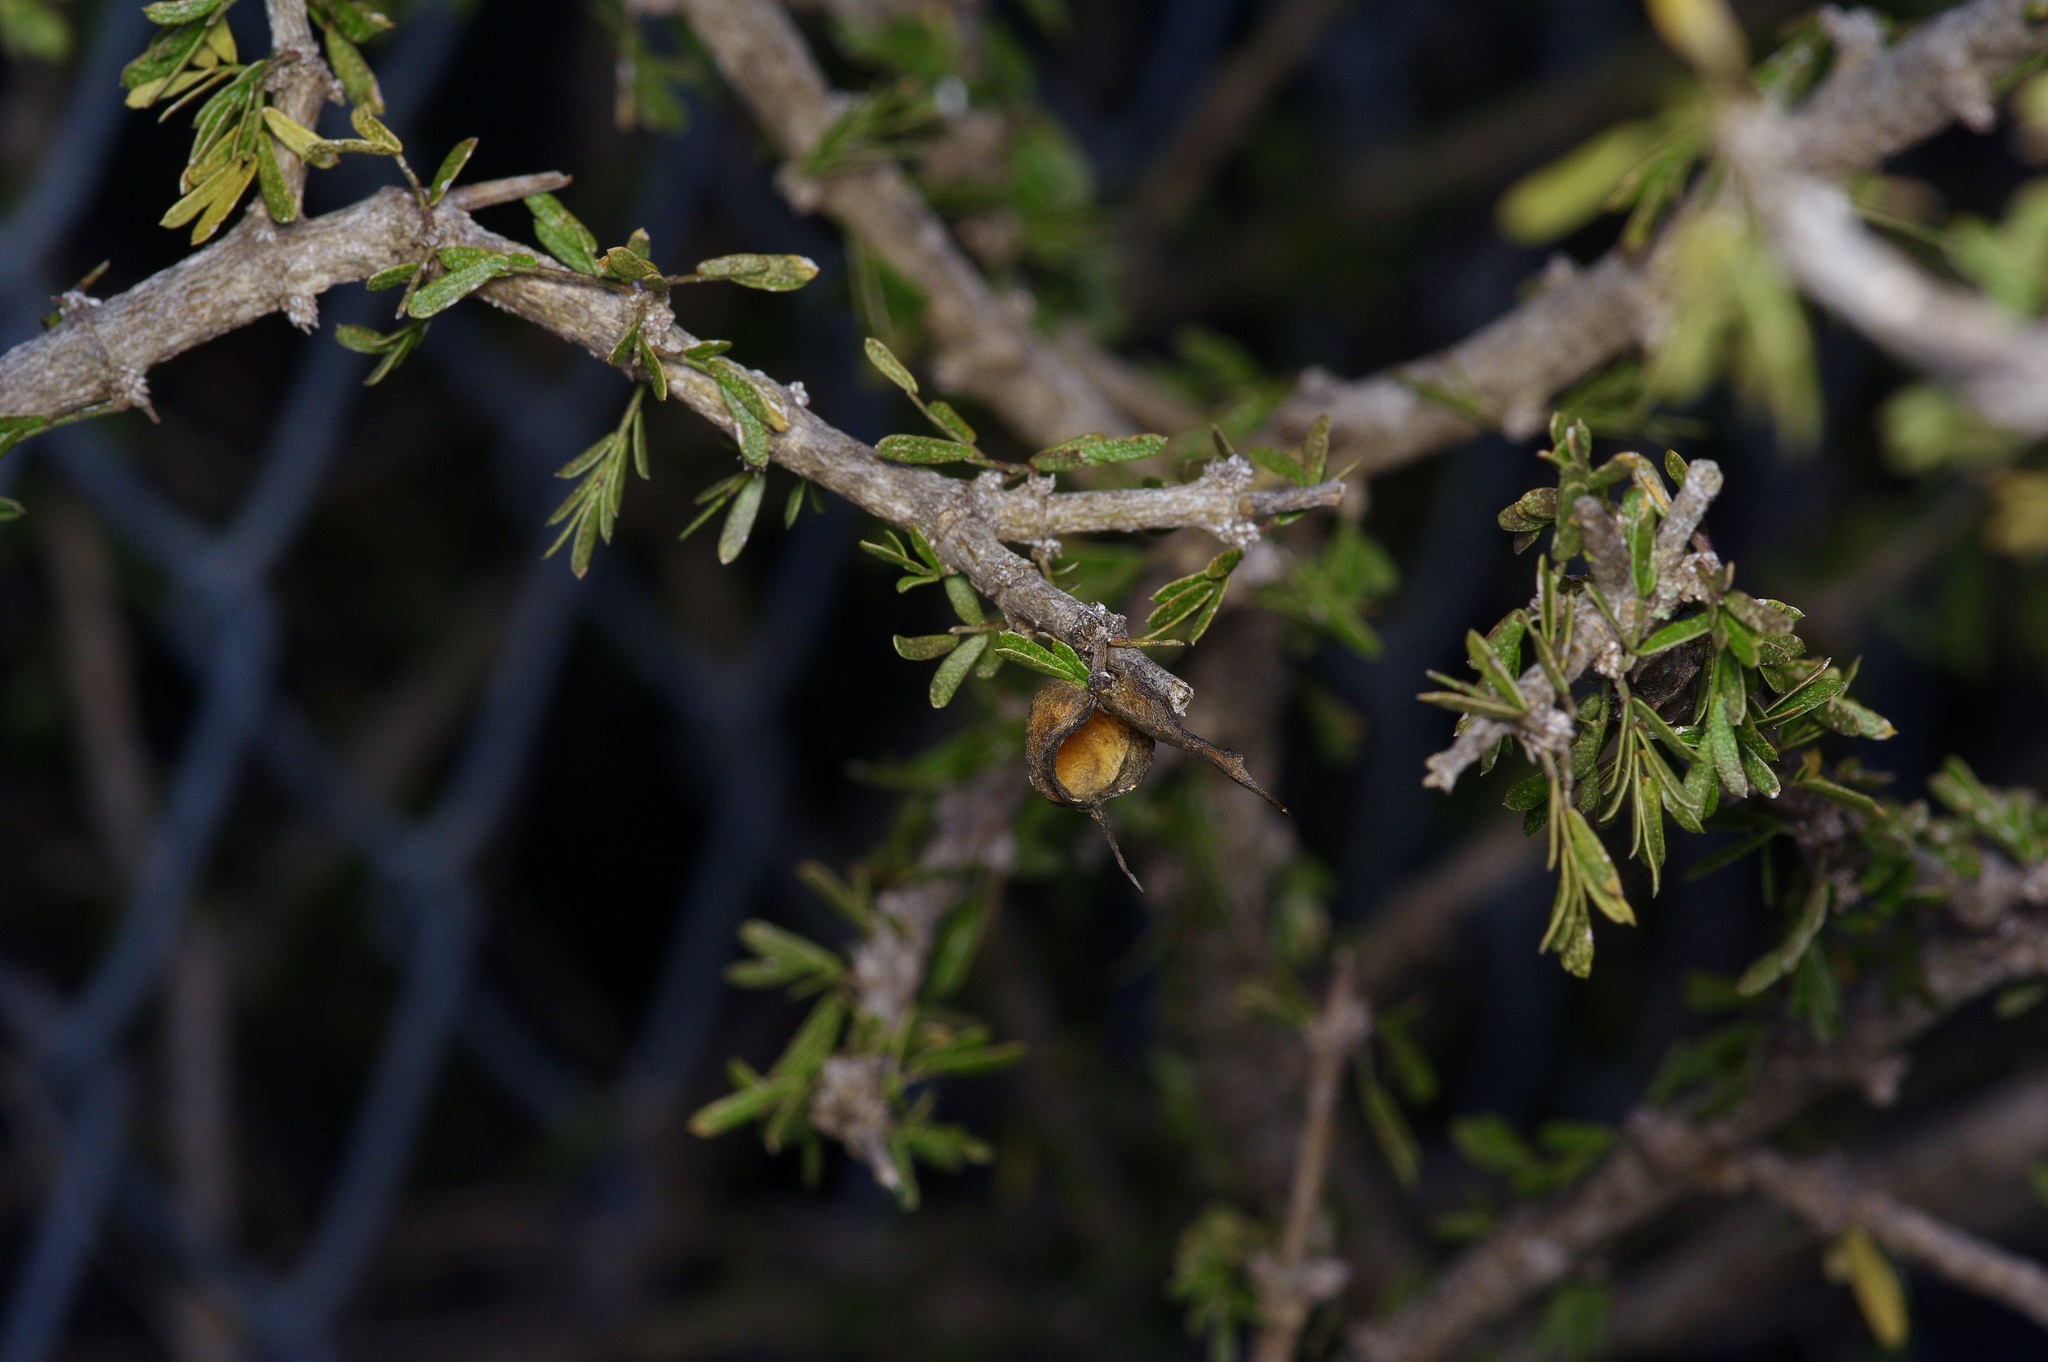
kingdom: Plantae
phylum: Tracheophyta
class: Magnoliopsida
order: Zygophyllales
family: Zygophyllaceae
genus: Porlieria
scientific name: Porlieria angustifolia
